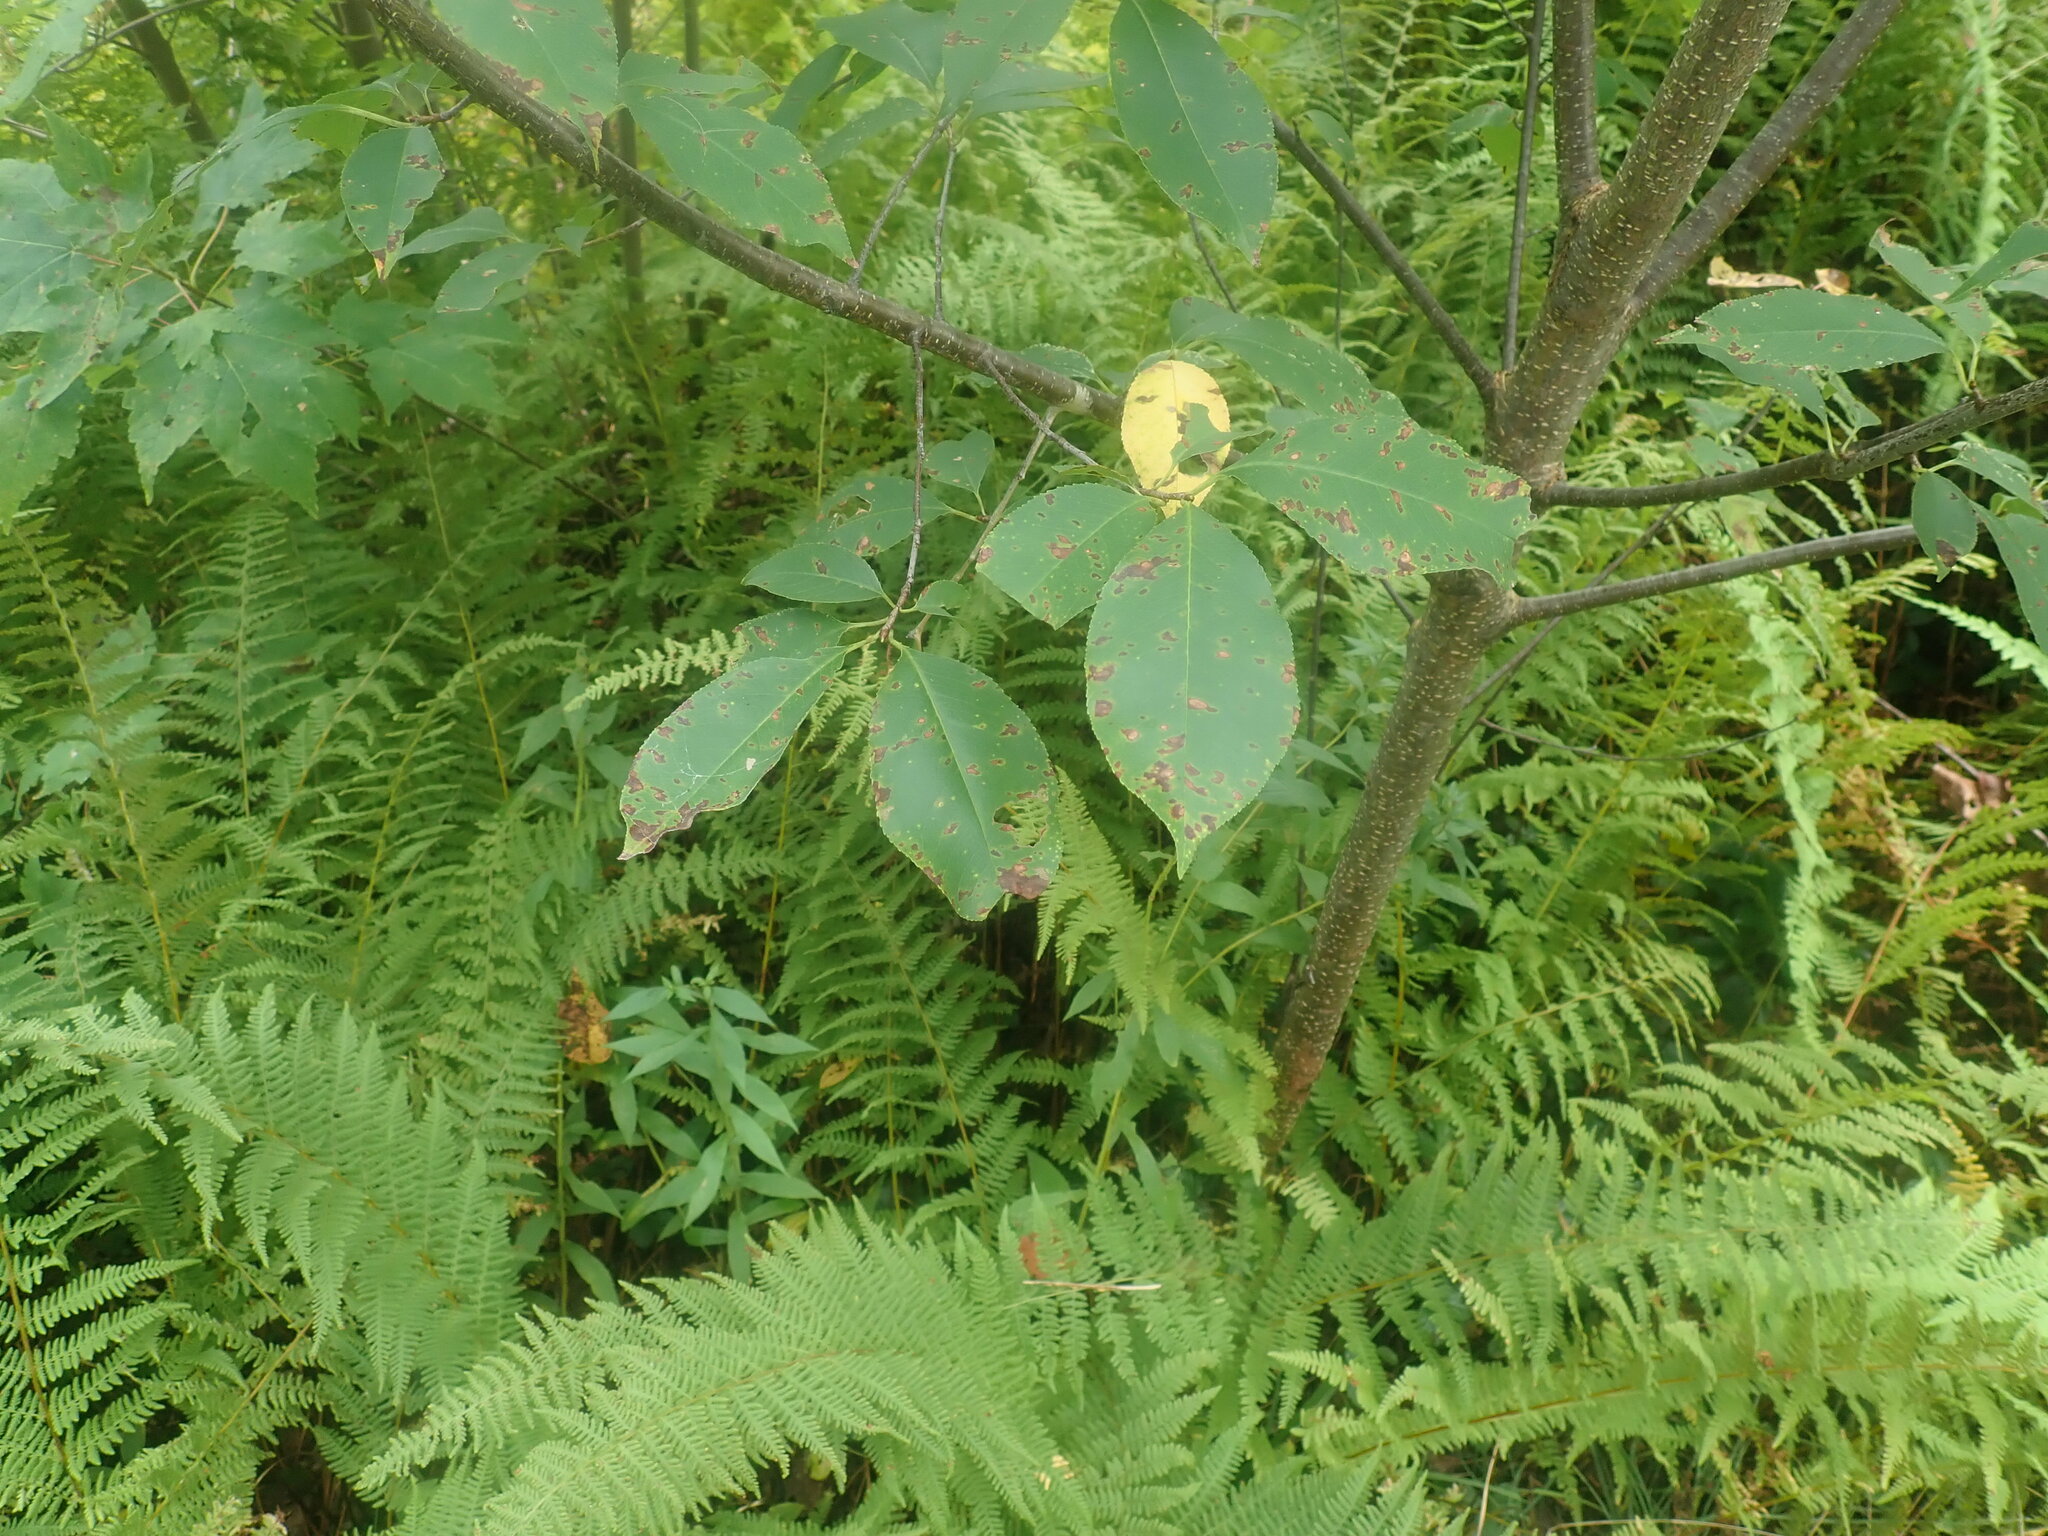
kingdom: Plantae
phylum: Tracheophyta
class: Magnoliopsida
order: Rosales
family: Rosaceae
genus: Prunus
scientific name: Prunus serotina
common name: Black cherry
